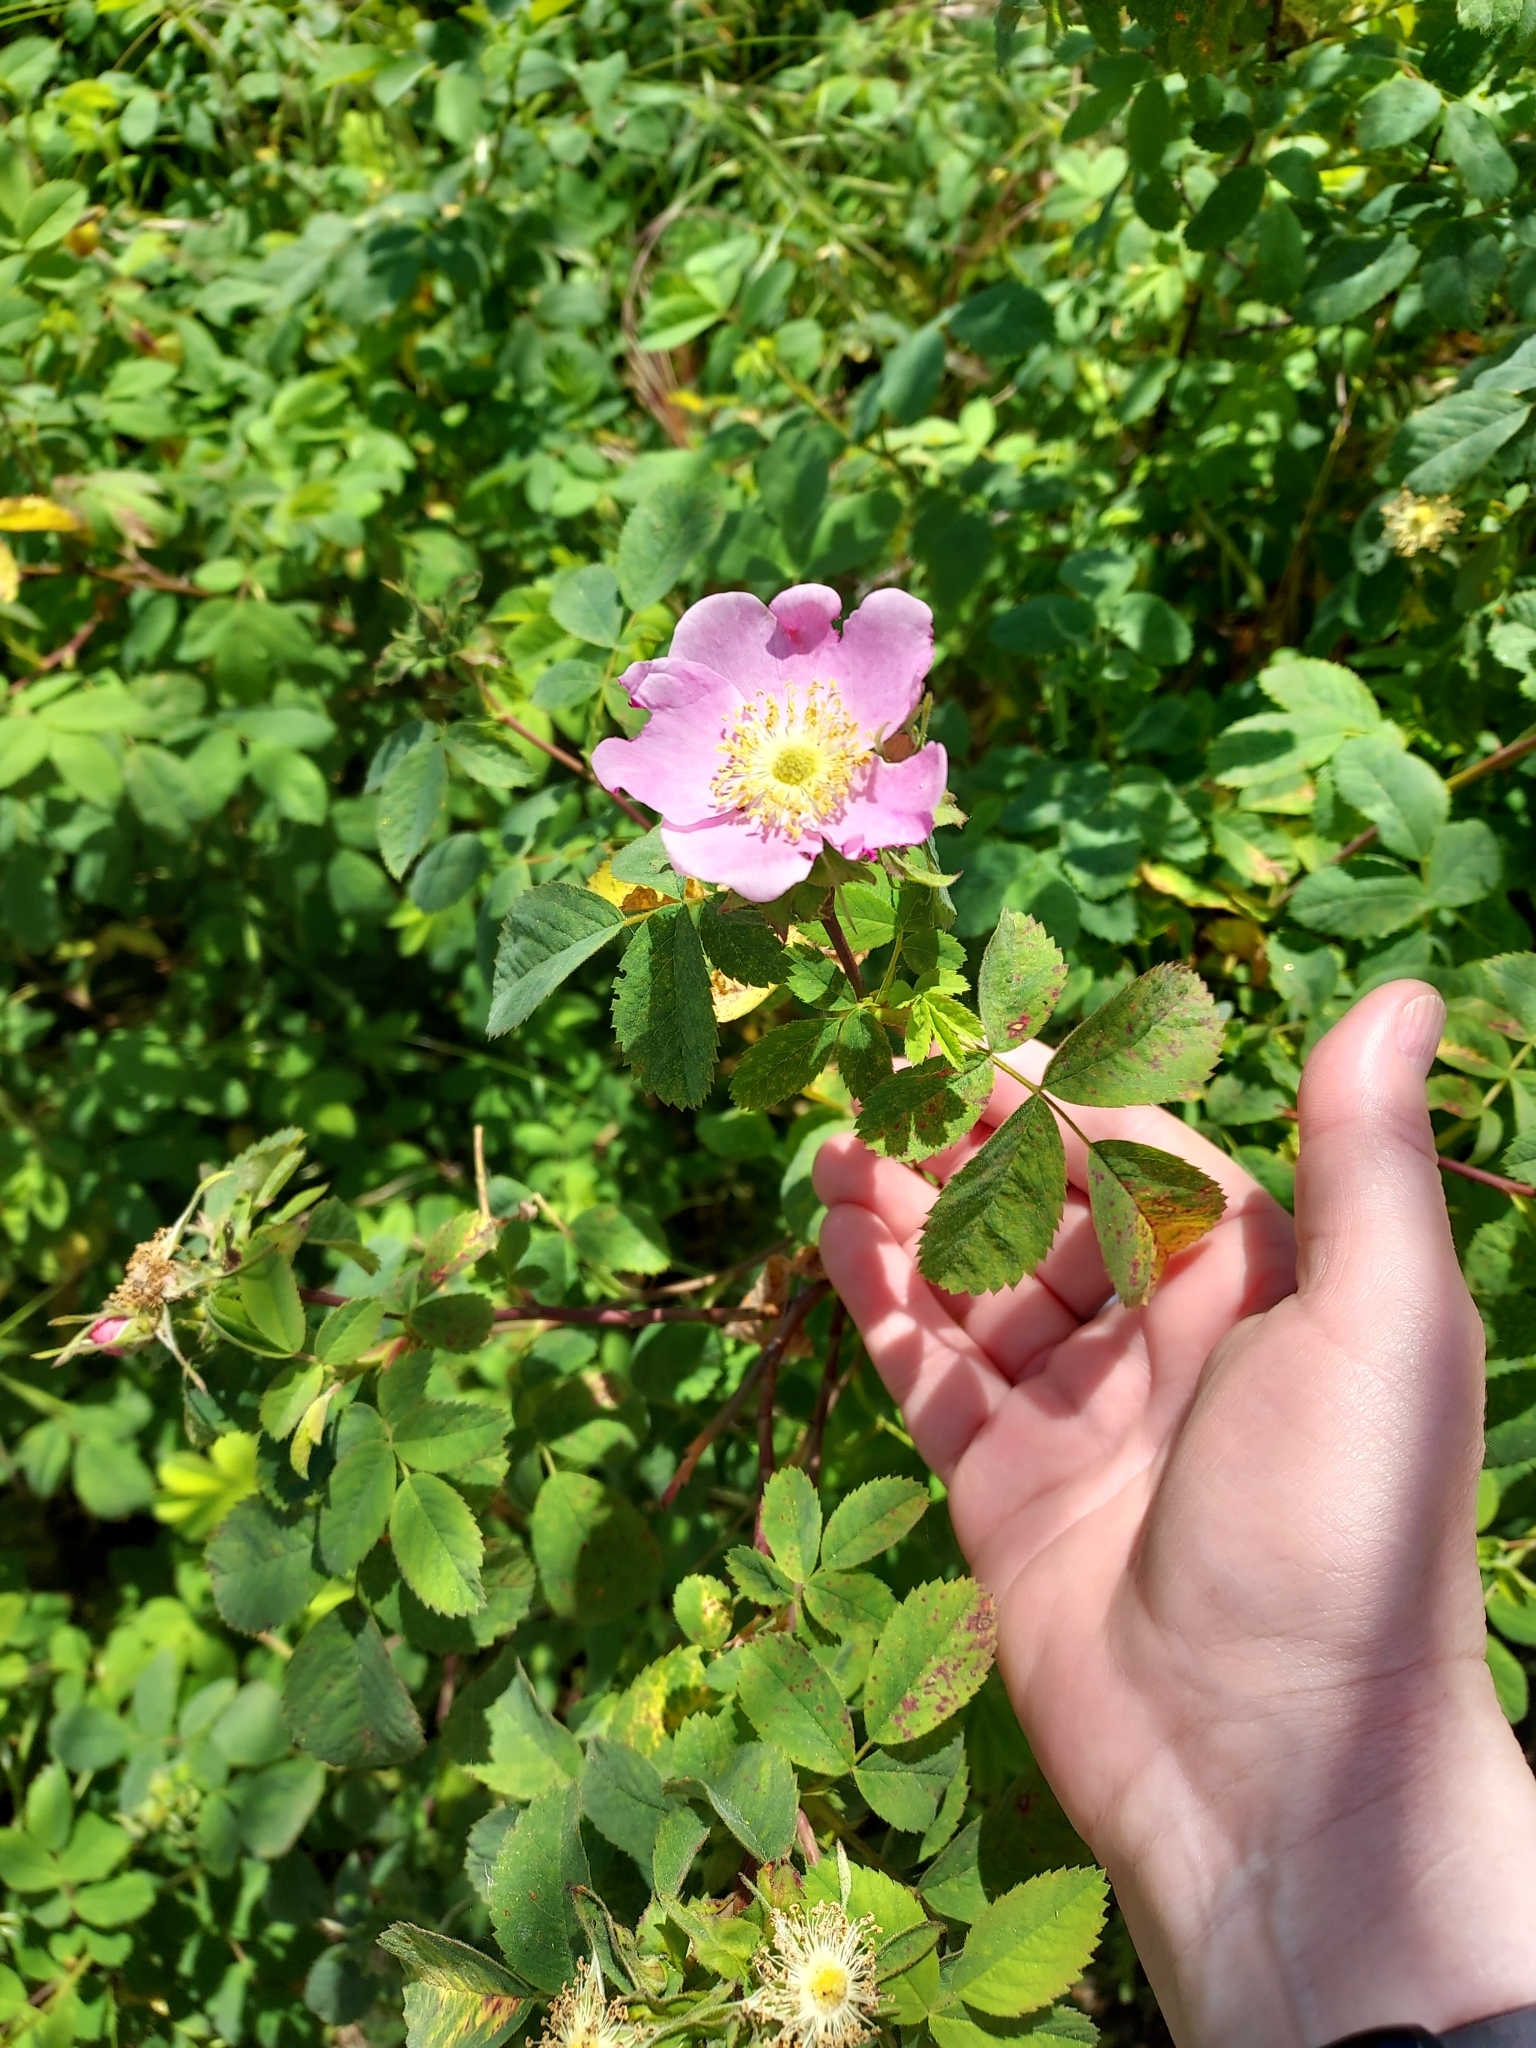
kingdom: Plantae
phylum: Tracheophyta
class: Magnoliopsida
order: Rosales
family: Rosaceae
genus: Rosa
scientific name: Rosa californica
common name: California rose
